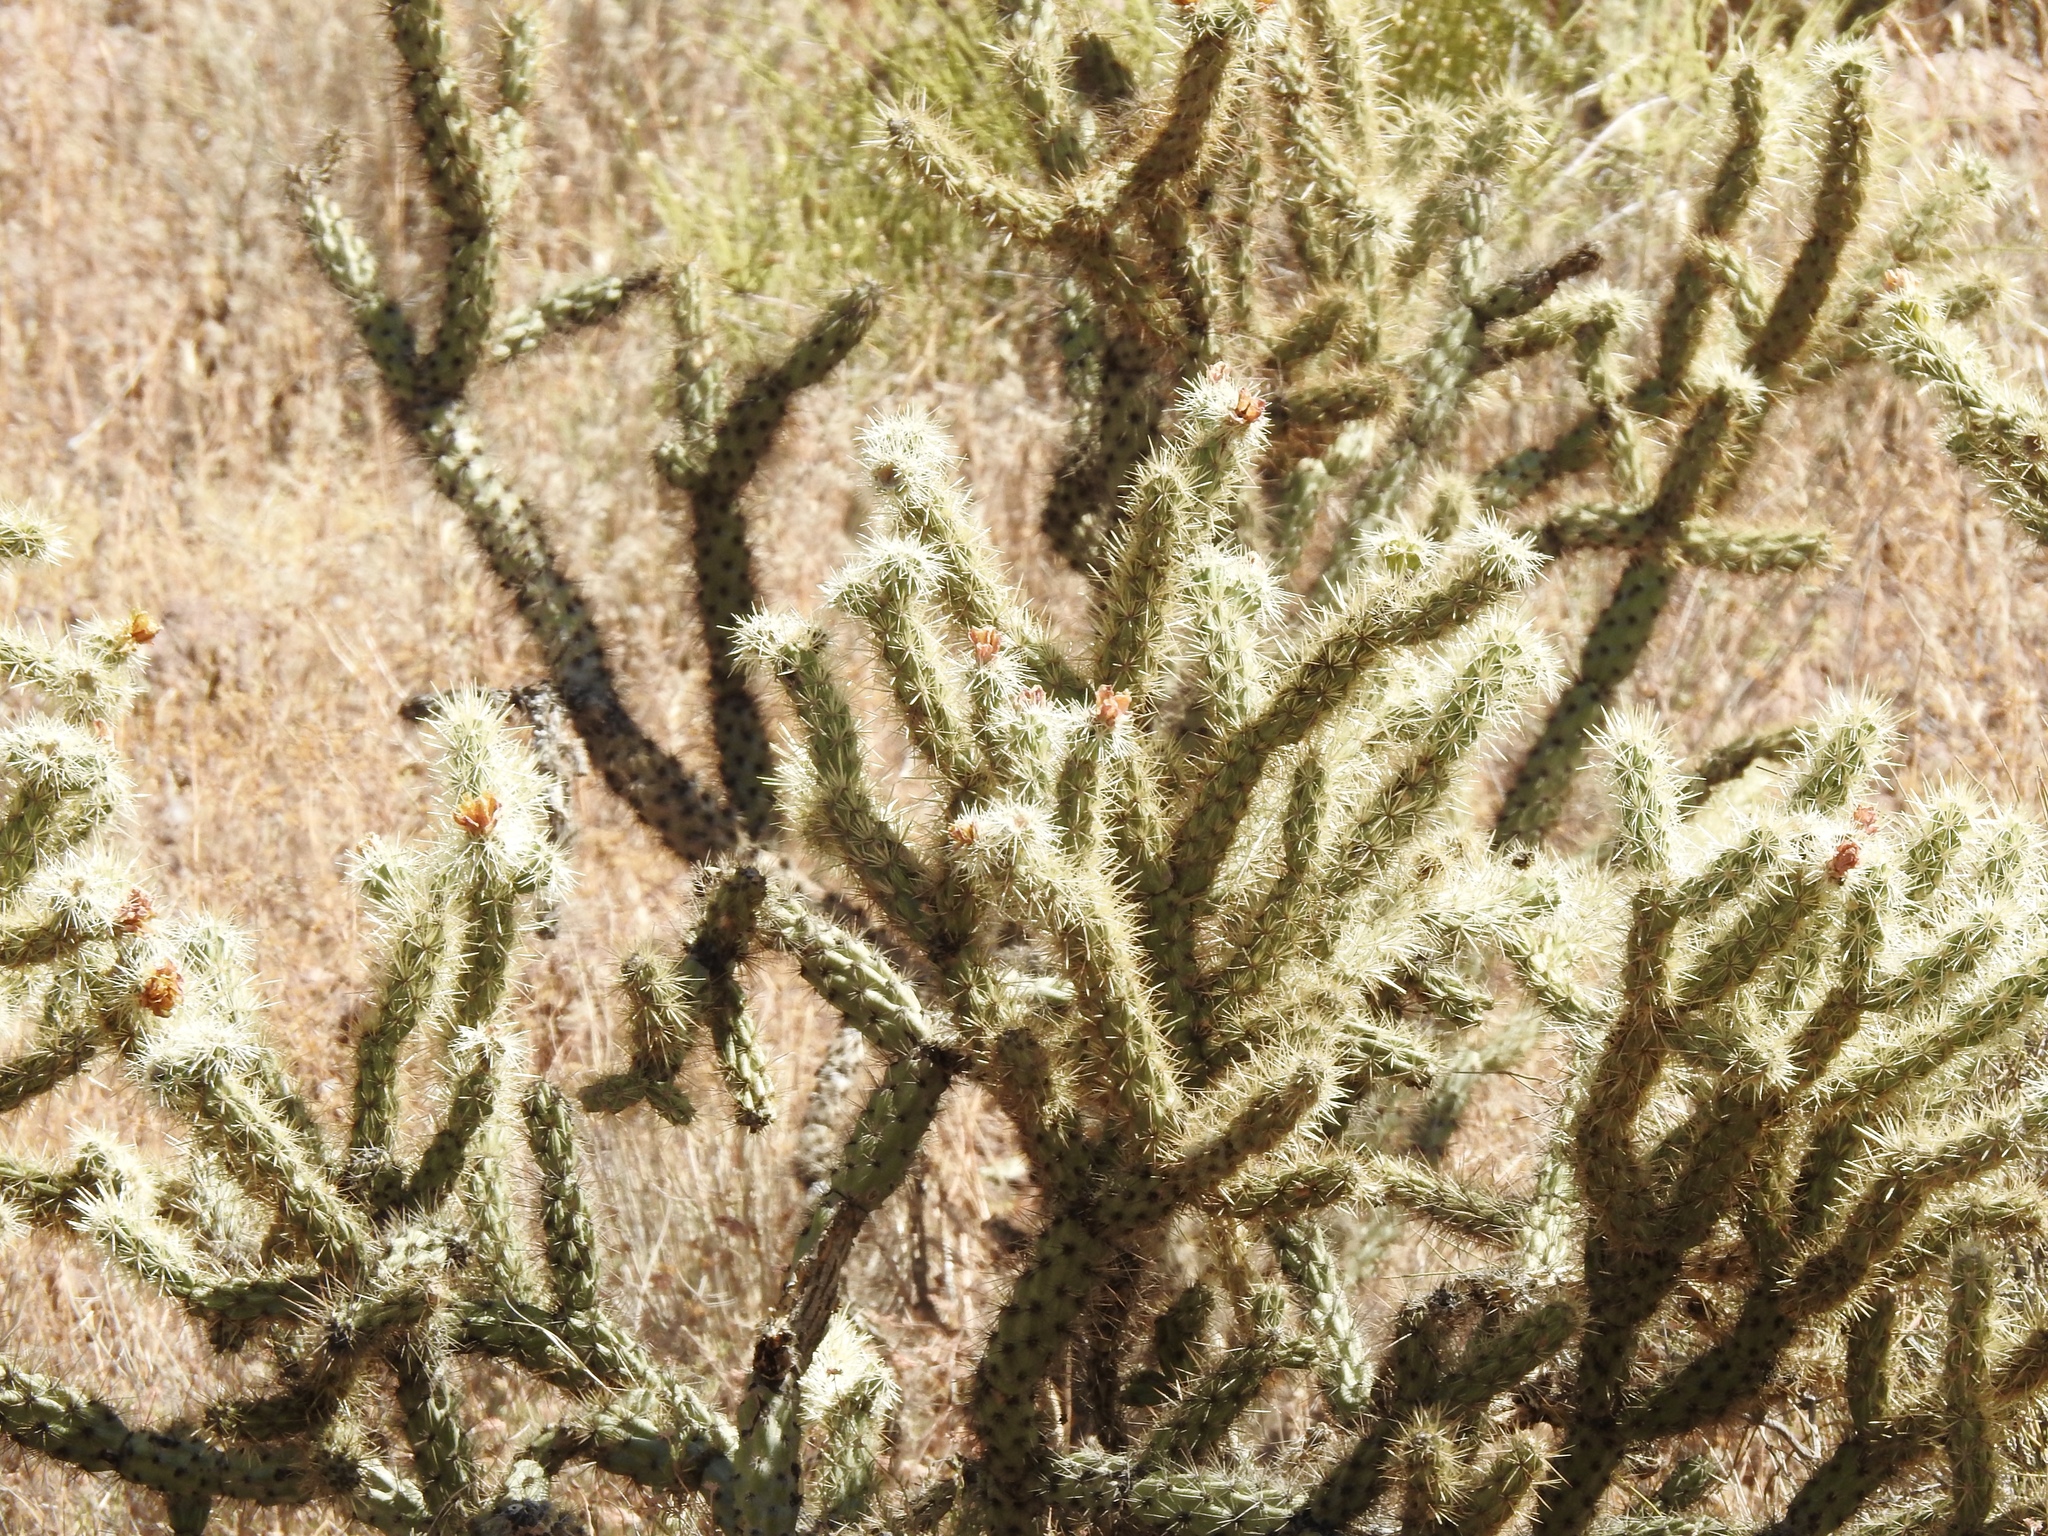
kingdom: Plantae
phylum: Tracheophyta
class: Magnoliopsida
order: Caryophyllales
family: Cactaceae
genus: Cylindropuntia
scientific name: Cylindropuntia acanthocarpa
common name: Buckhorn cholla
